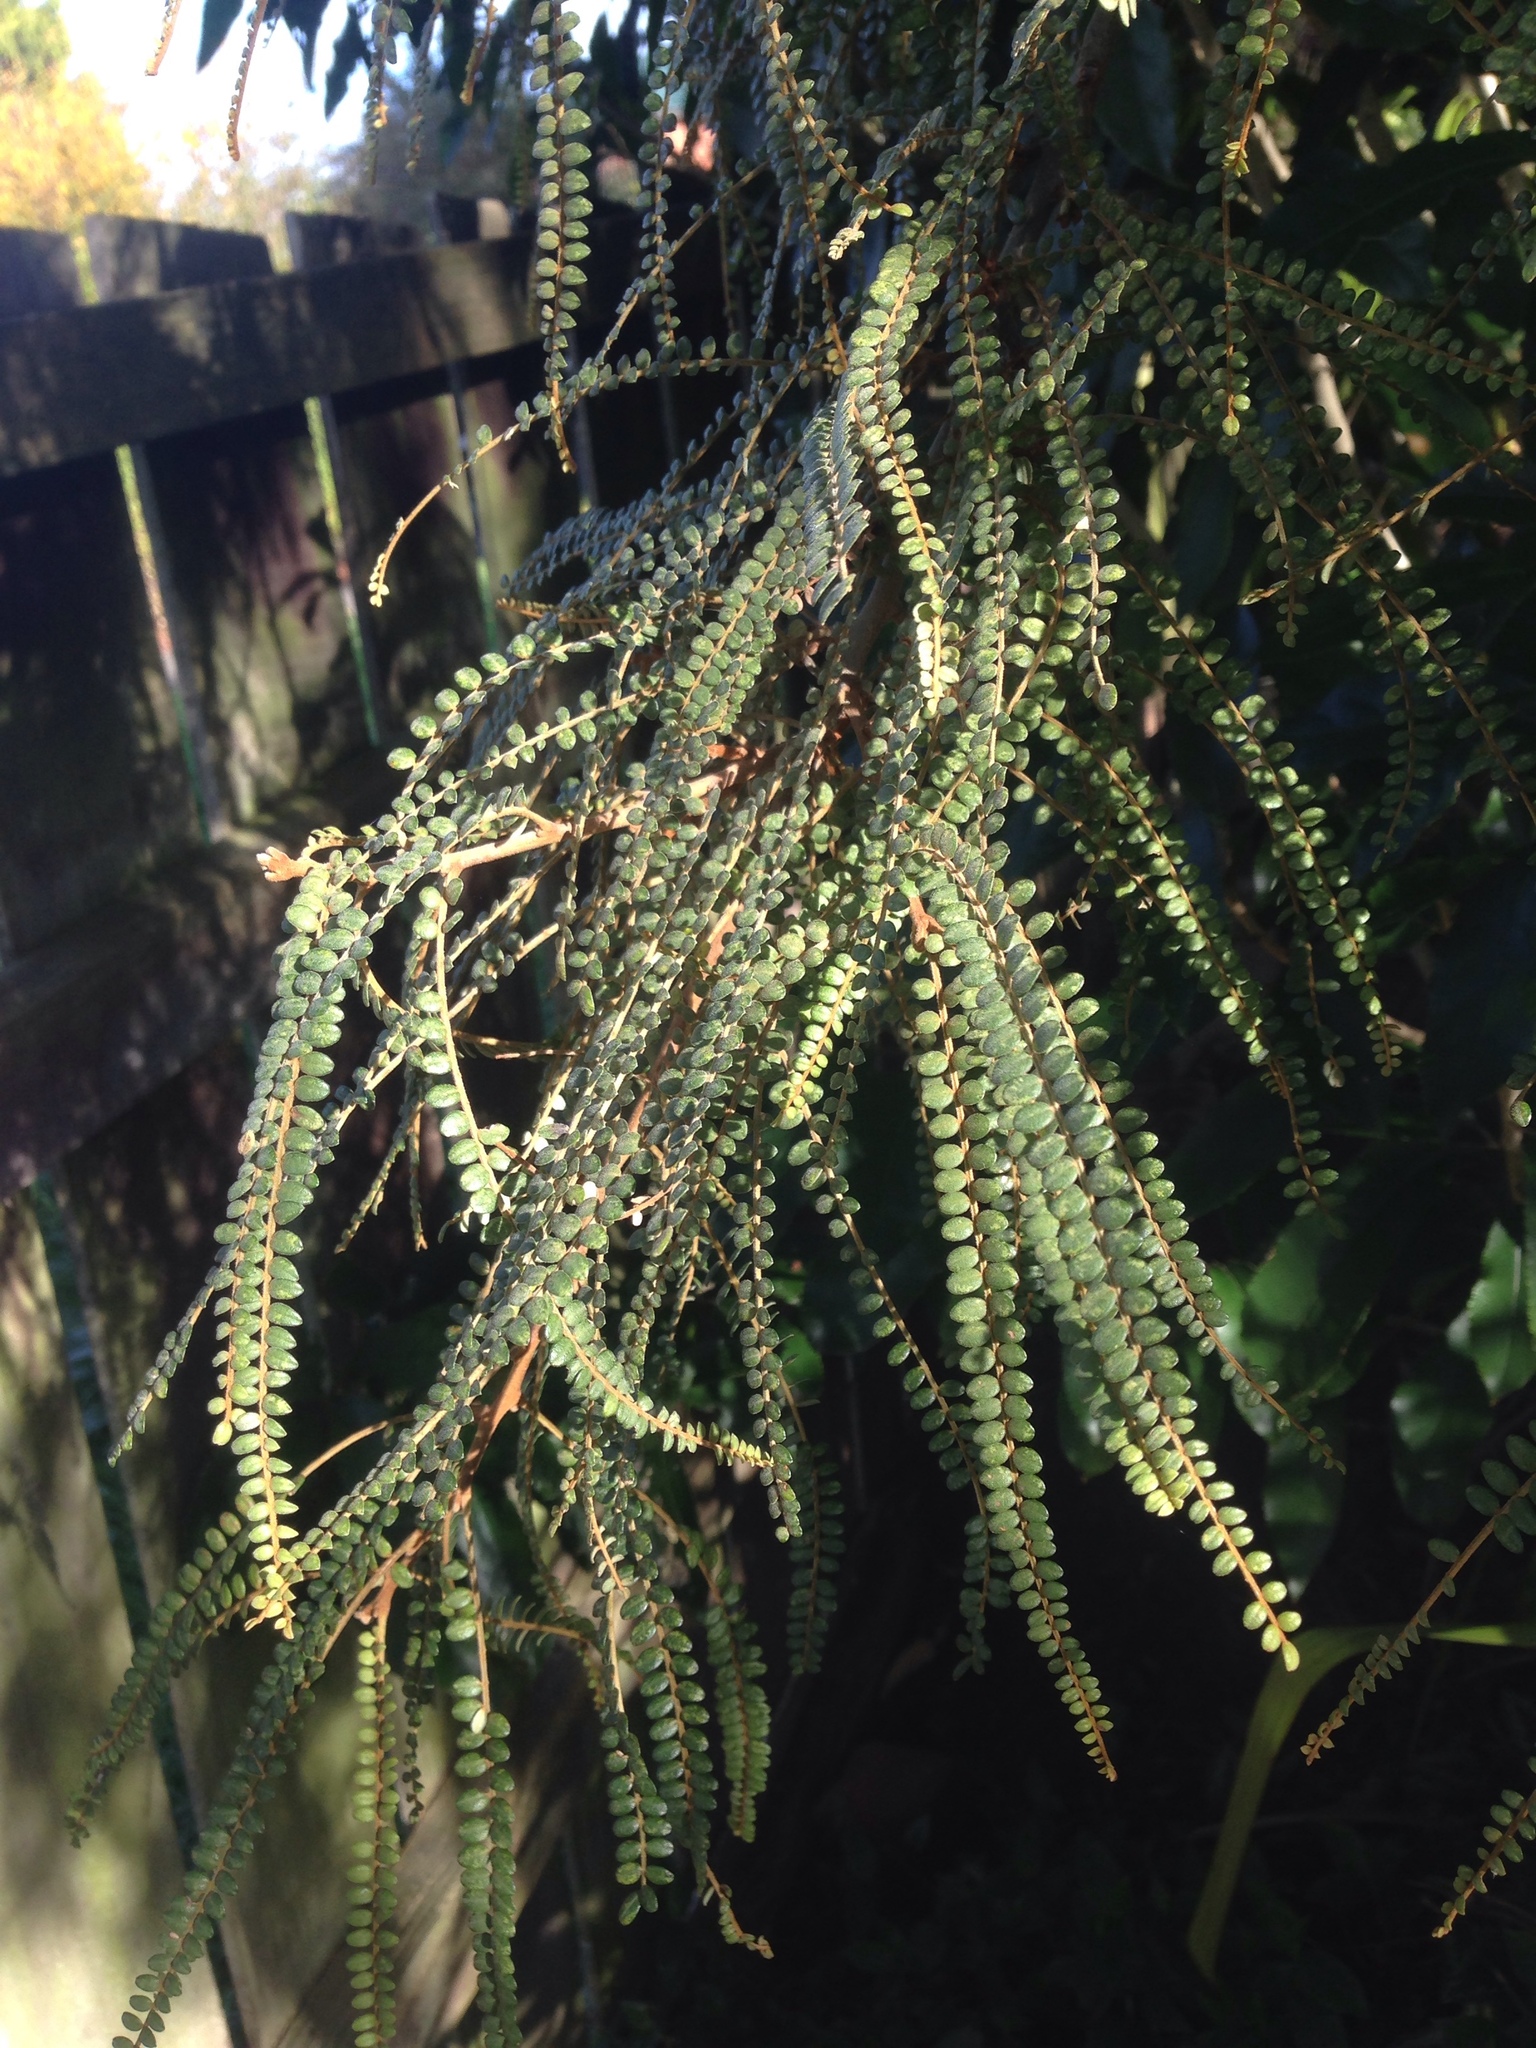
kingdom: Plantae
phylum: Tracheophyta
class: Magnoliopsida
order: Fabales
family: Fabaceae
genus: Sophora
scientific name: Sophora microphylla
